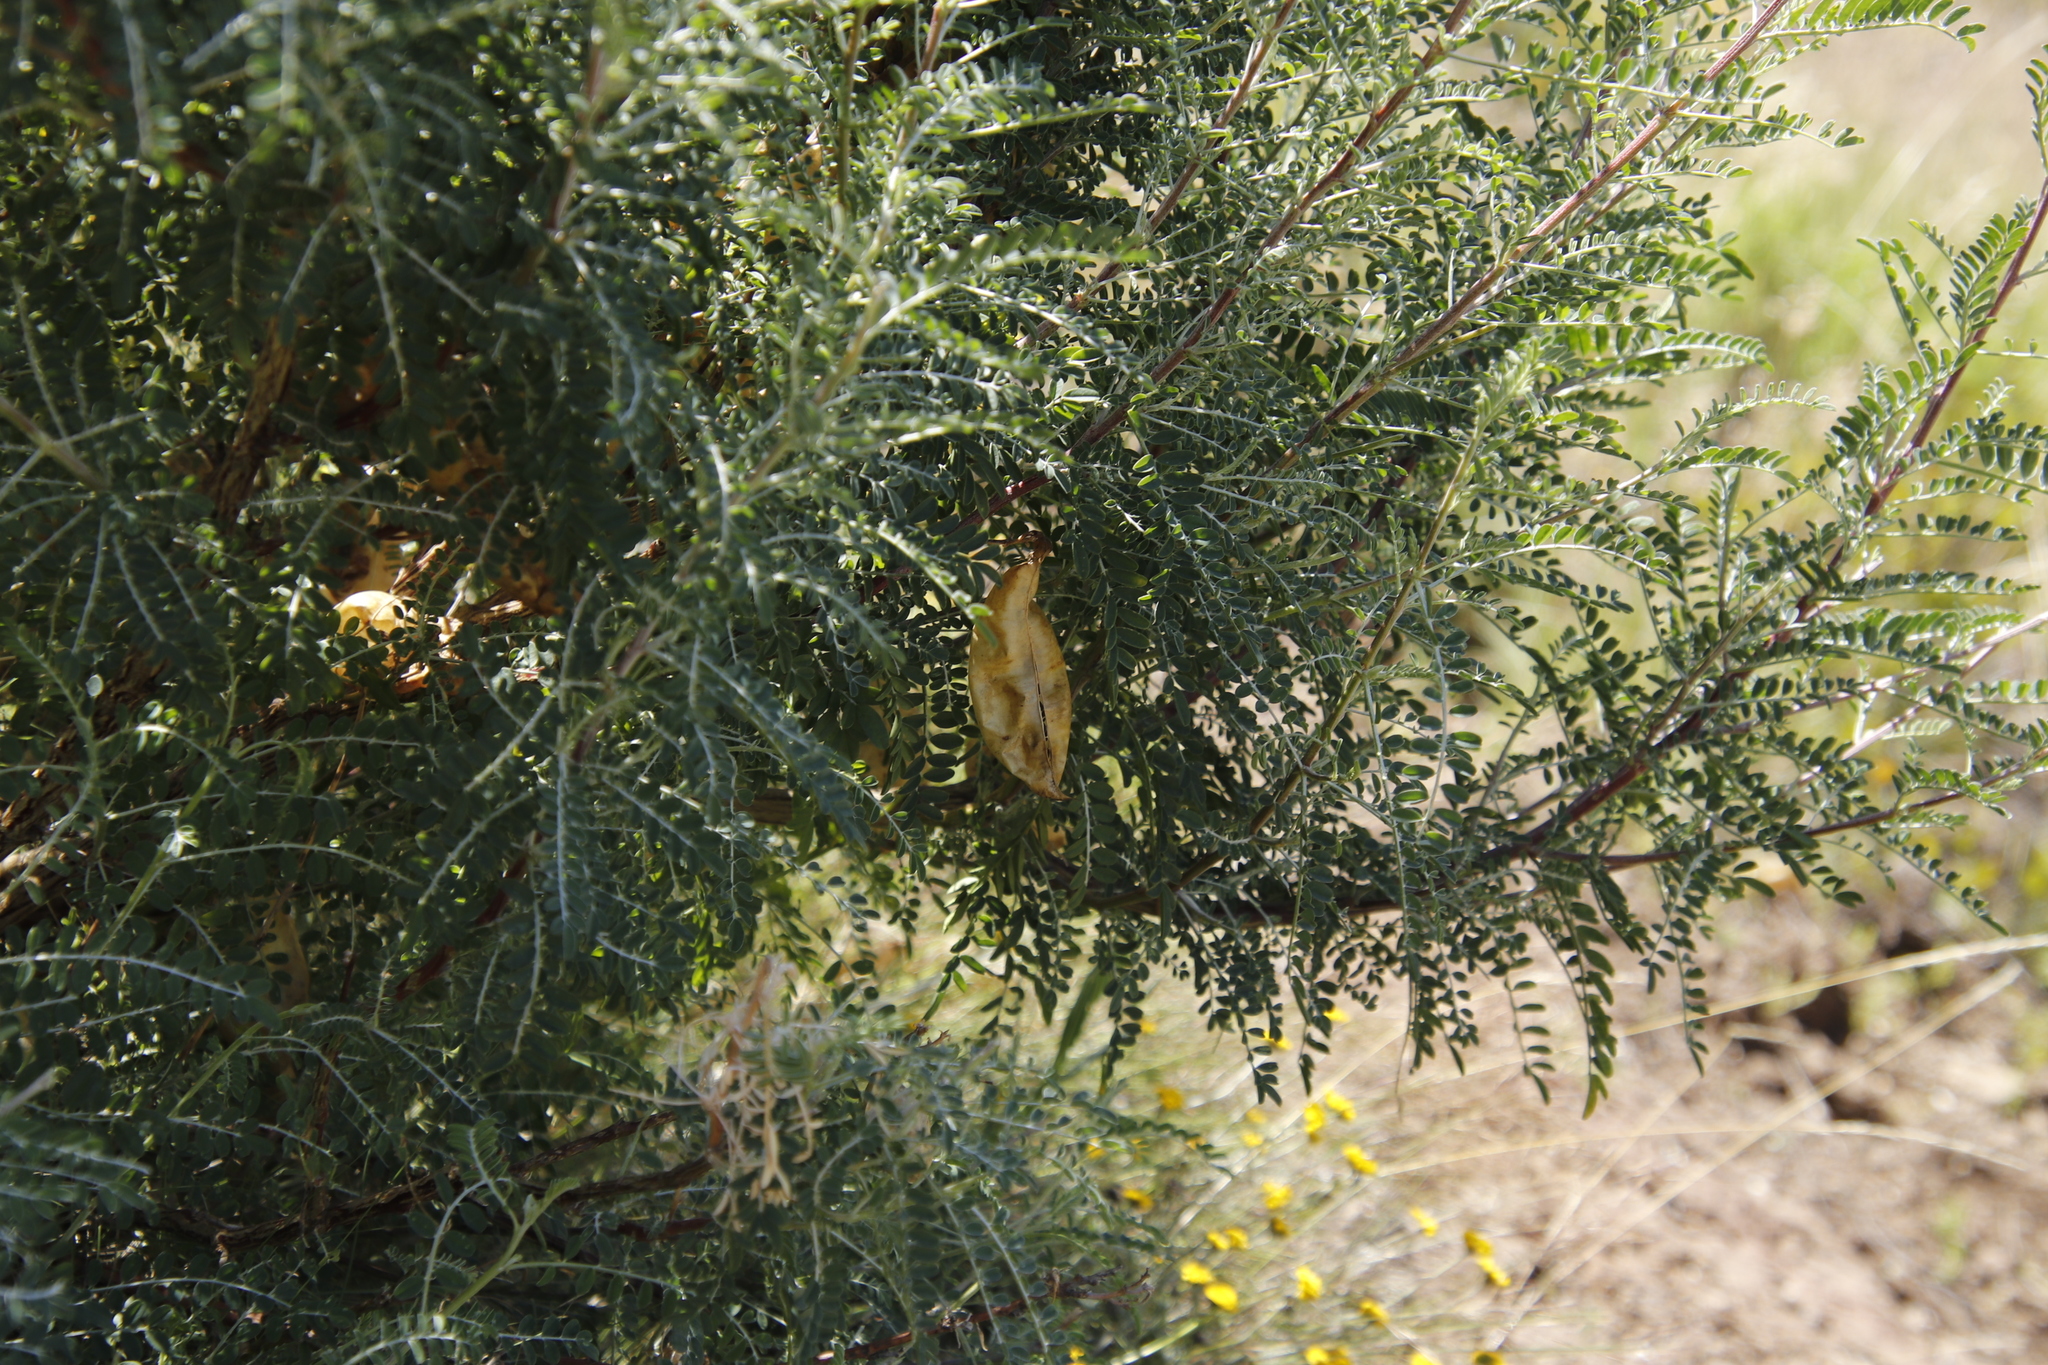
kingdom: Plantae
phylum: Tracheophyta
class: Magnoliopsida
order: Fabales
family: Fabaceae
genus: Lessertia
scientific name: Lessertia frutescens
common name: Balloon-pea
